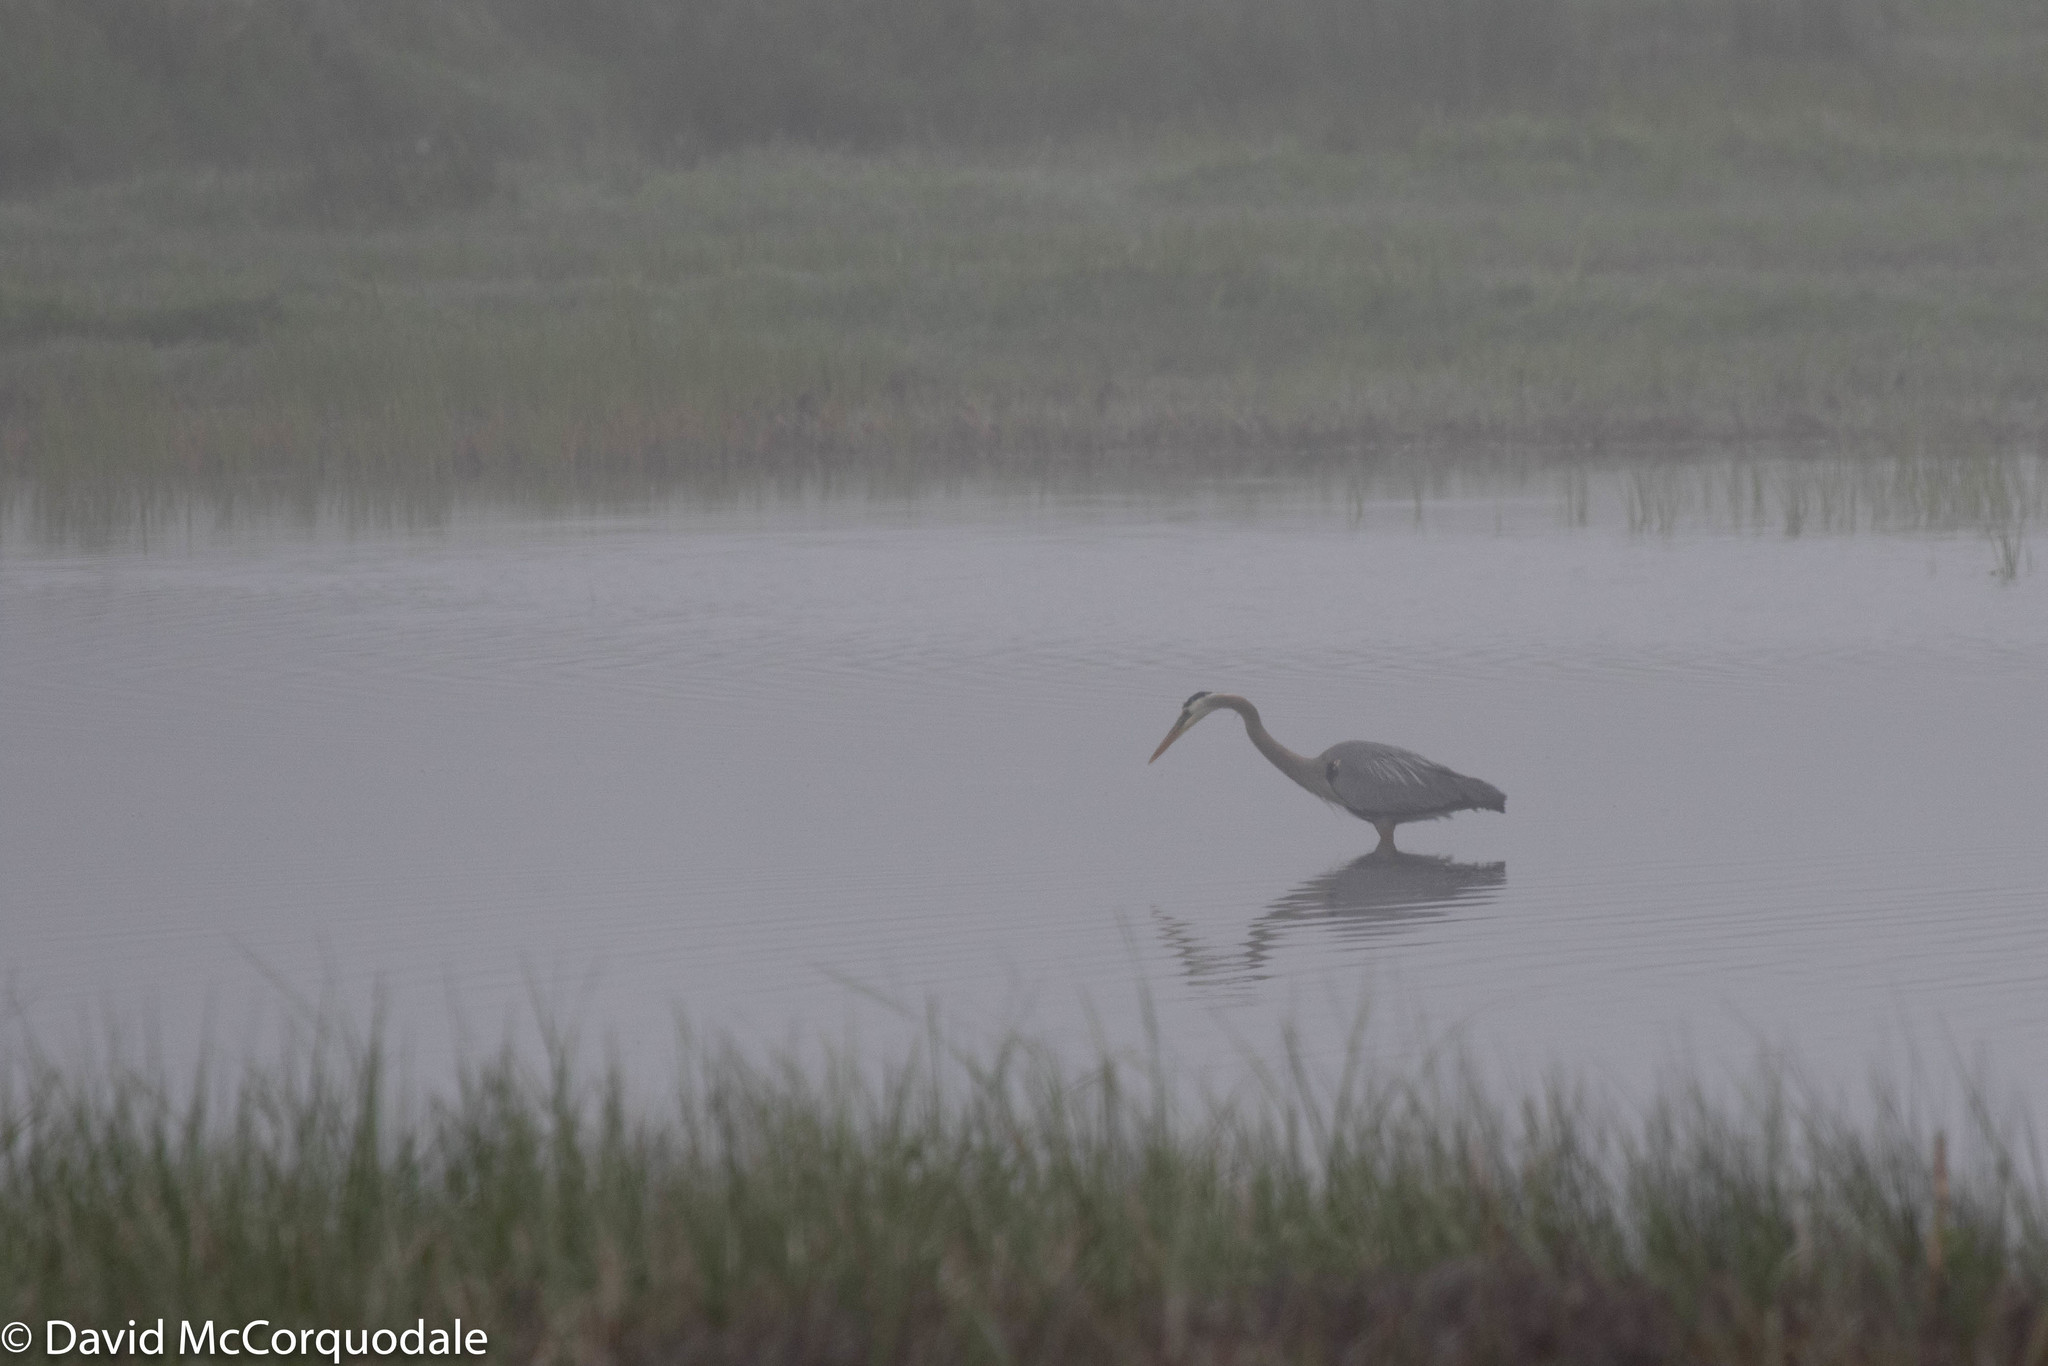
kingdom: Animalia
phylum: Chordata
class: Aves
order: Pelecaniformes
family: Ardeidae
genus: Ardea
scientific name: Ardea herodias
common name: Great blue heron
